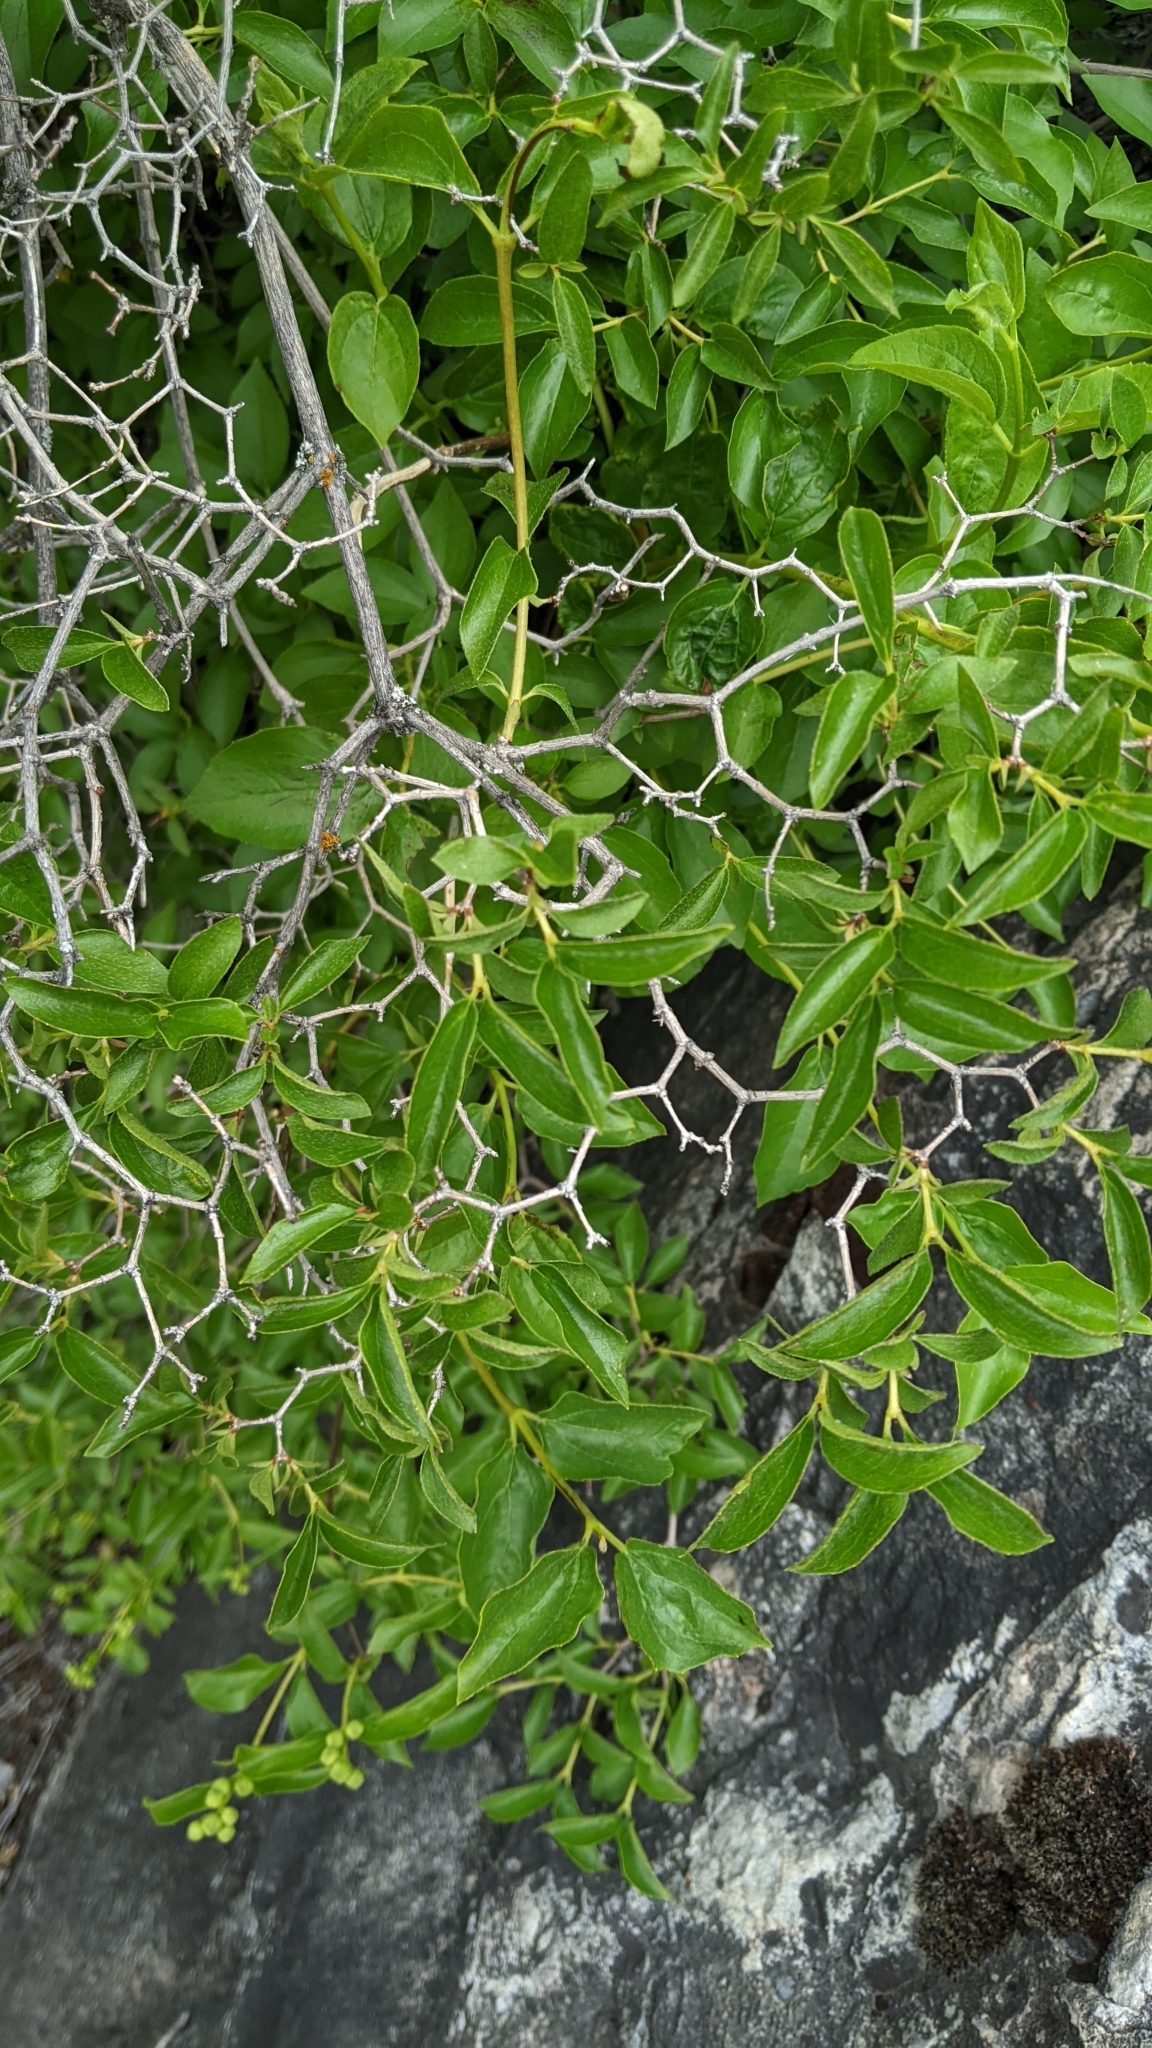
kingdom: Plantae
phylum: Tracheophyta
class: Magnoliopsida
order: Cornales
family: Hydrangeaceae
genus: Philadelphus
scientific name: Philadelphus lewisii
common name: Lewis's mock orange
